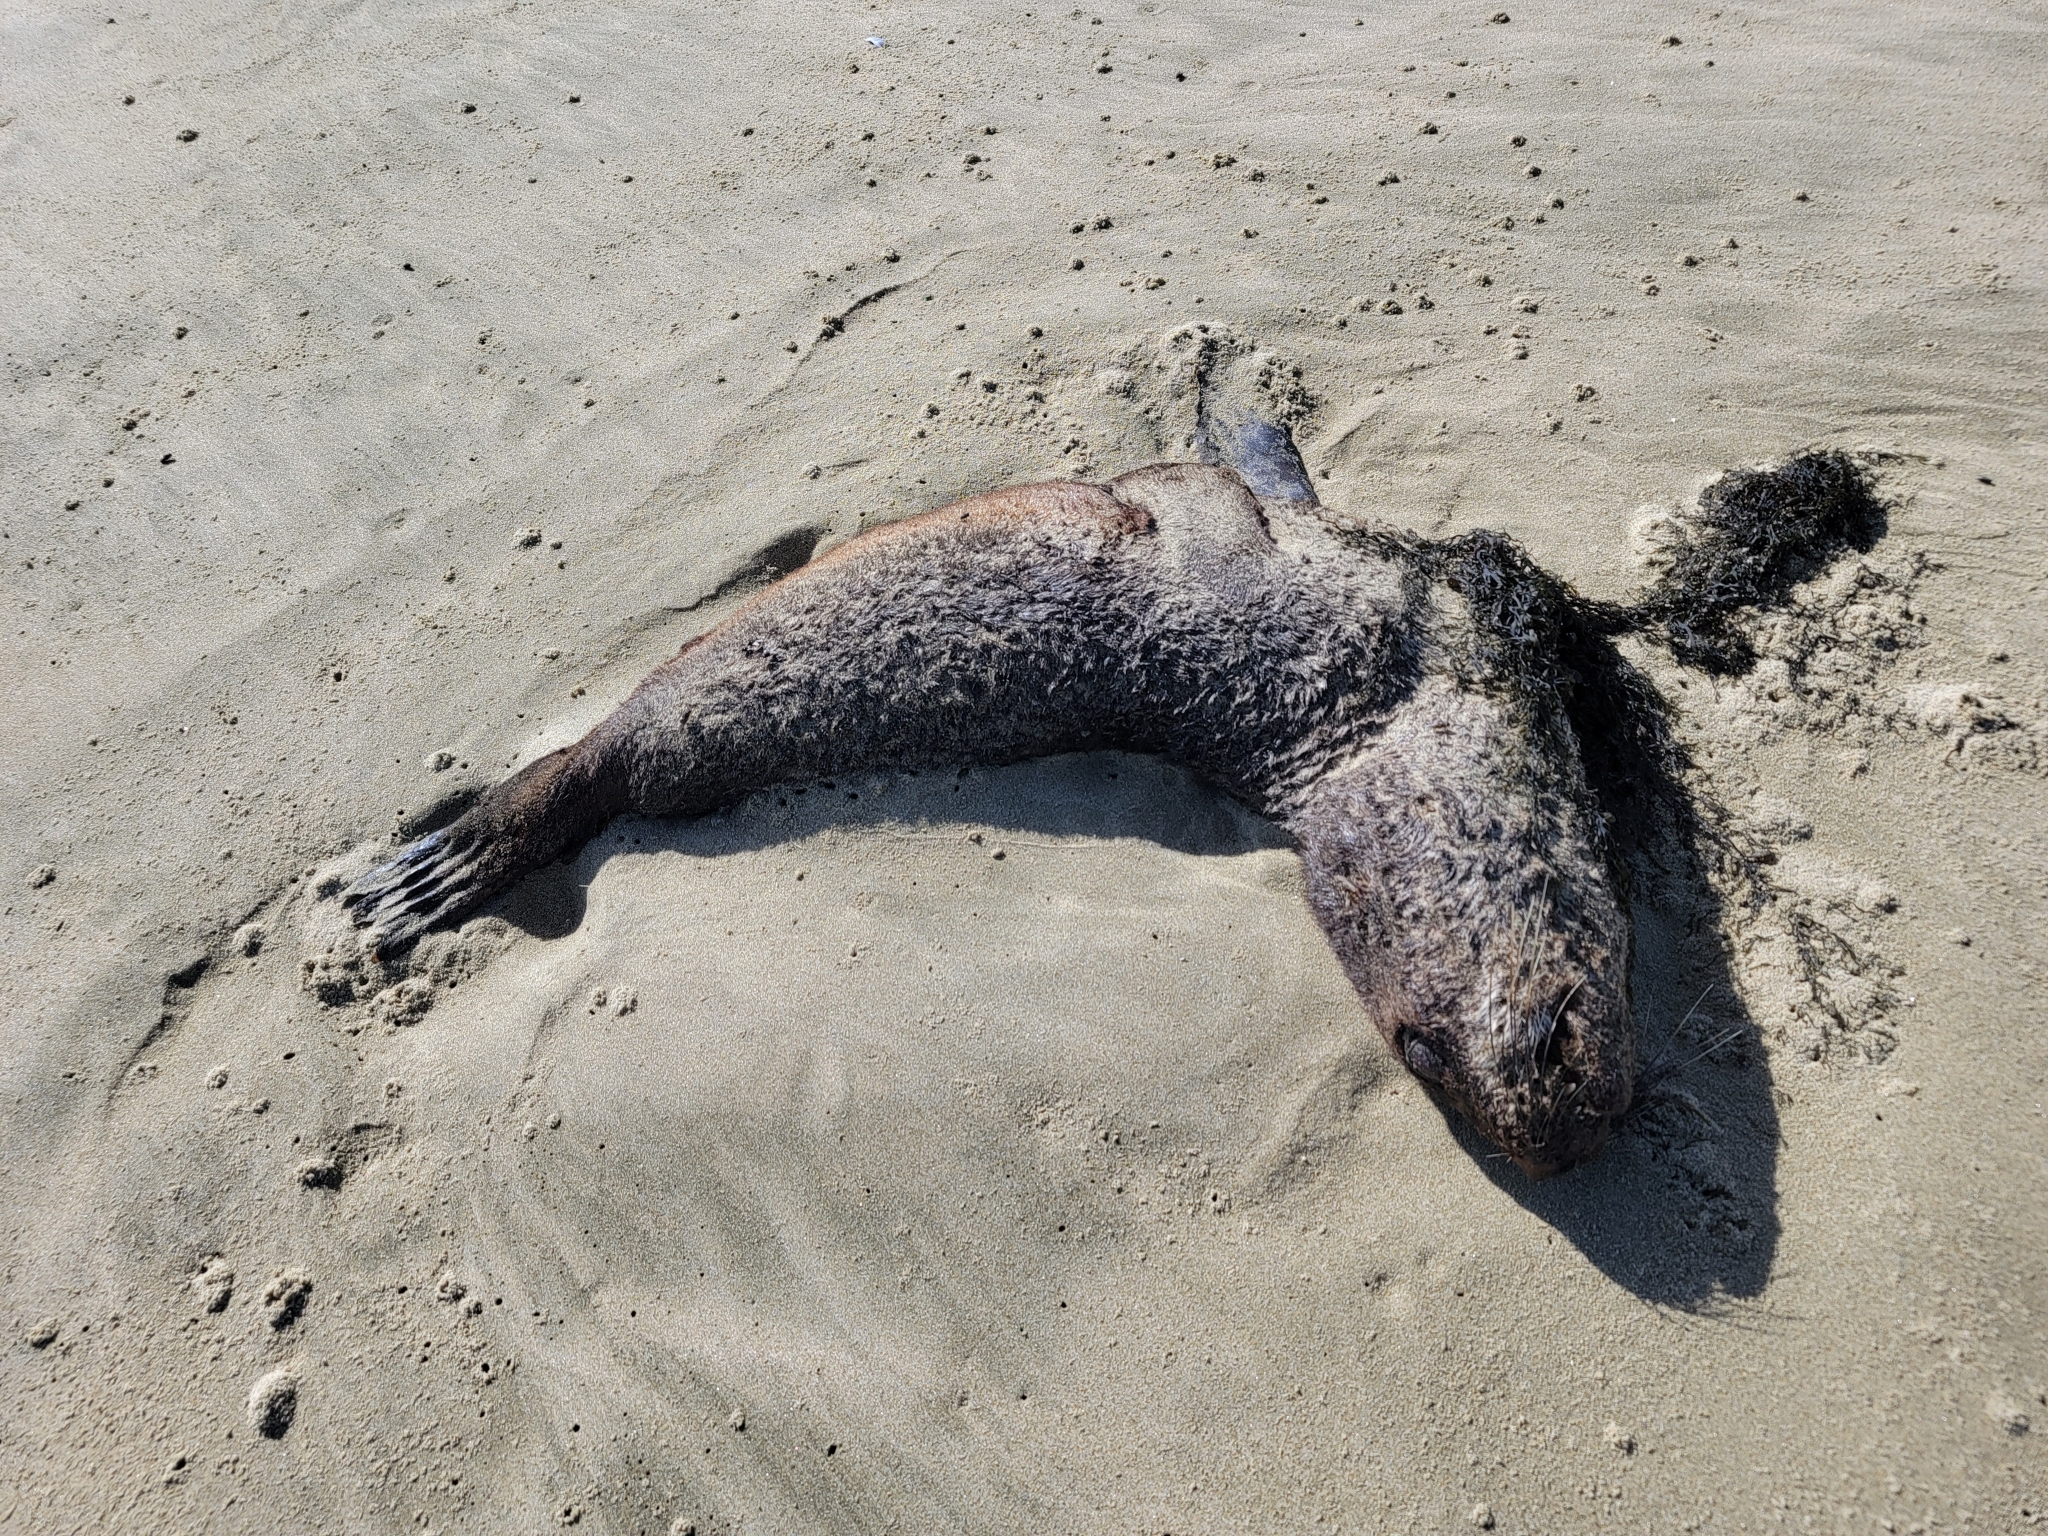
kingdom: Animalia
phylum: Chordata
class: Mammalia
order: Carnivora
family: Otariidae
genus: Arctocephalus
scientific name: Arctocephalus forsteri
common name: New zealand fur seal
